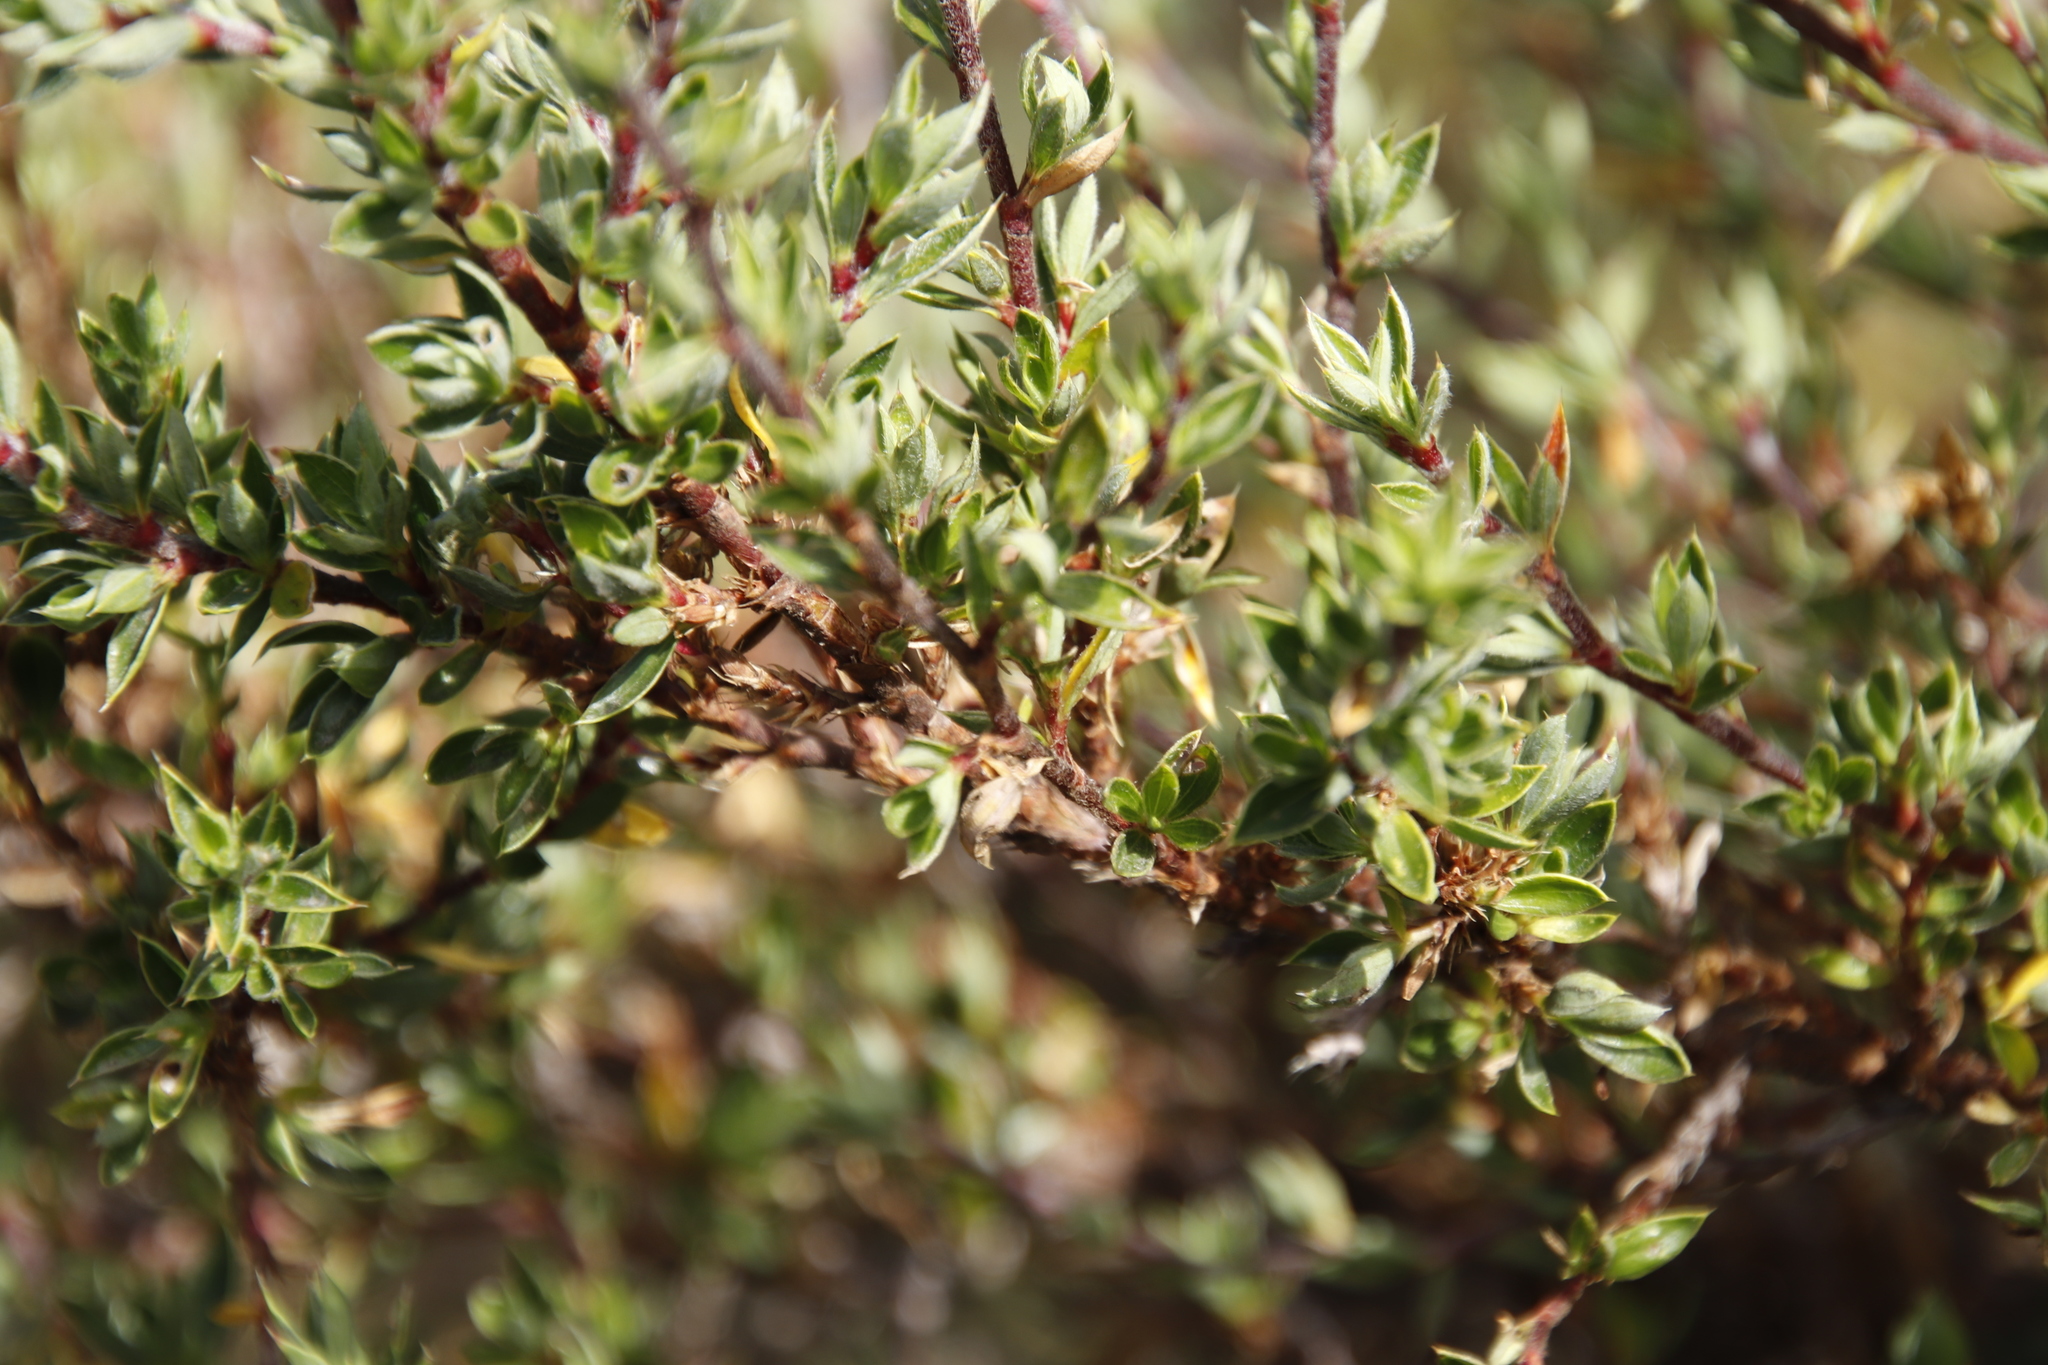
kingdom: Plantae
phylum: Tracheophyta
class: Magnoliopsida
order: Rosales
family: Rosaceae
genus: Cliffortia
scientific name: Cliffortia tridentata
